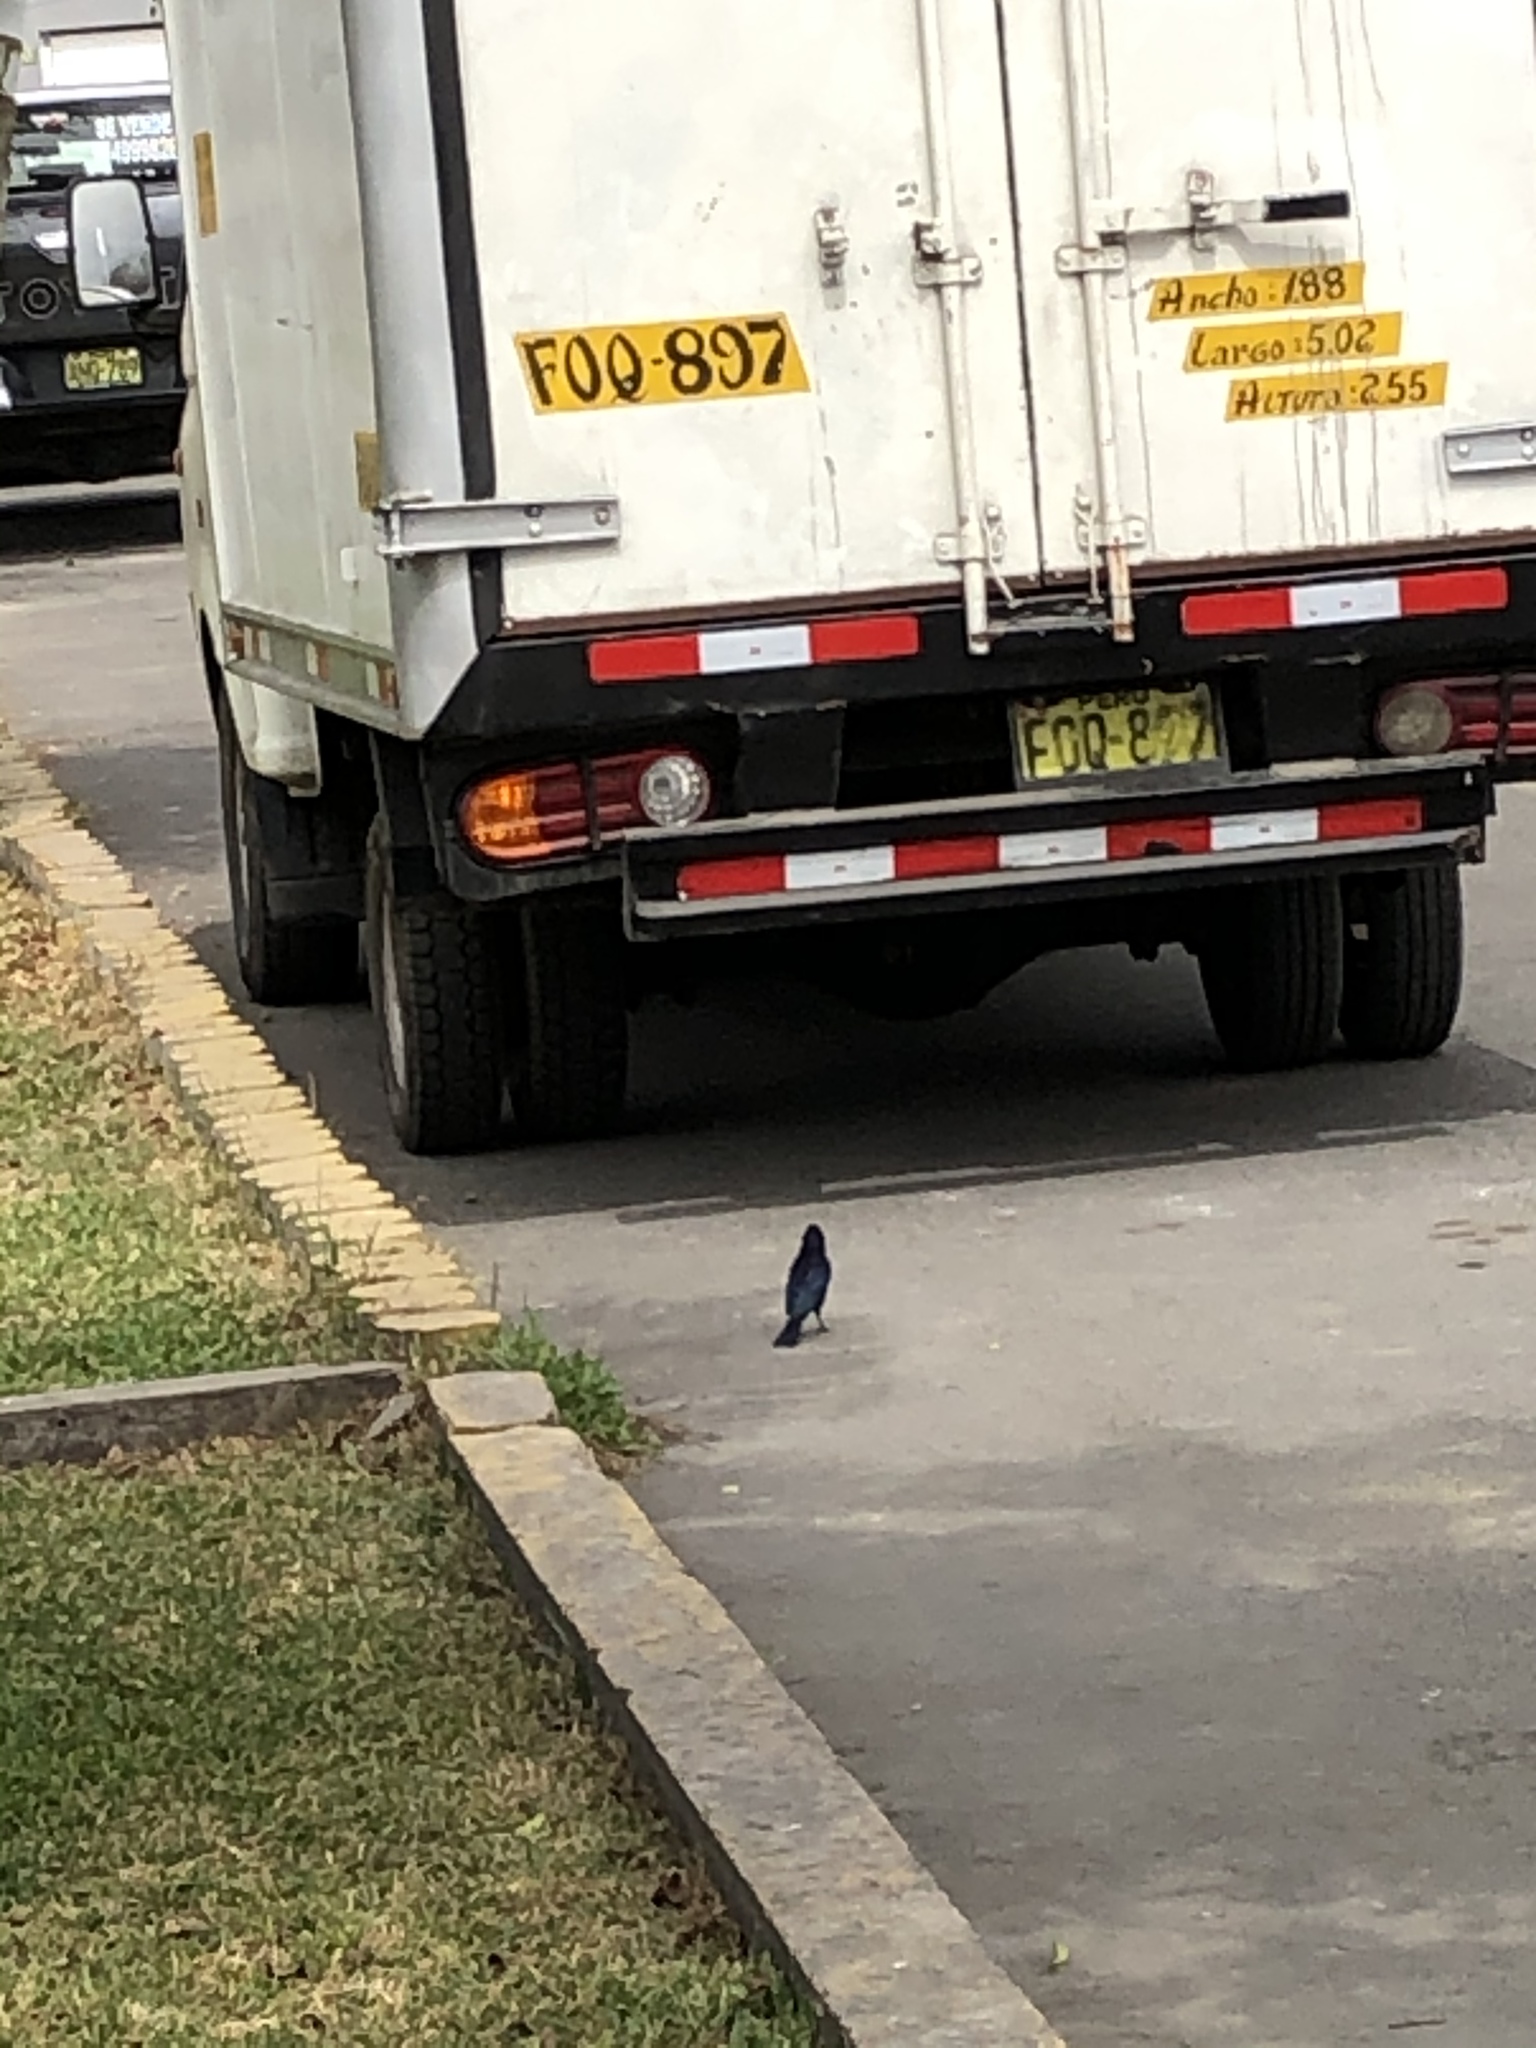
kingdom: Animalia
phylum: Chordata
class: Aves
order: Passeriformes
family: Icteridae
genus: Molothrus
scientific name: Molothrus bonariensis
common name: Shiny cowbird
